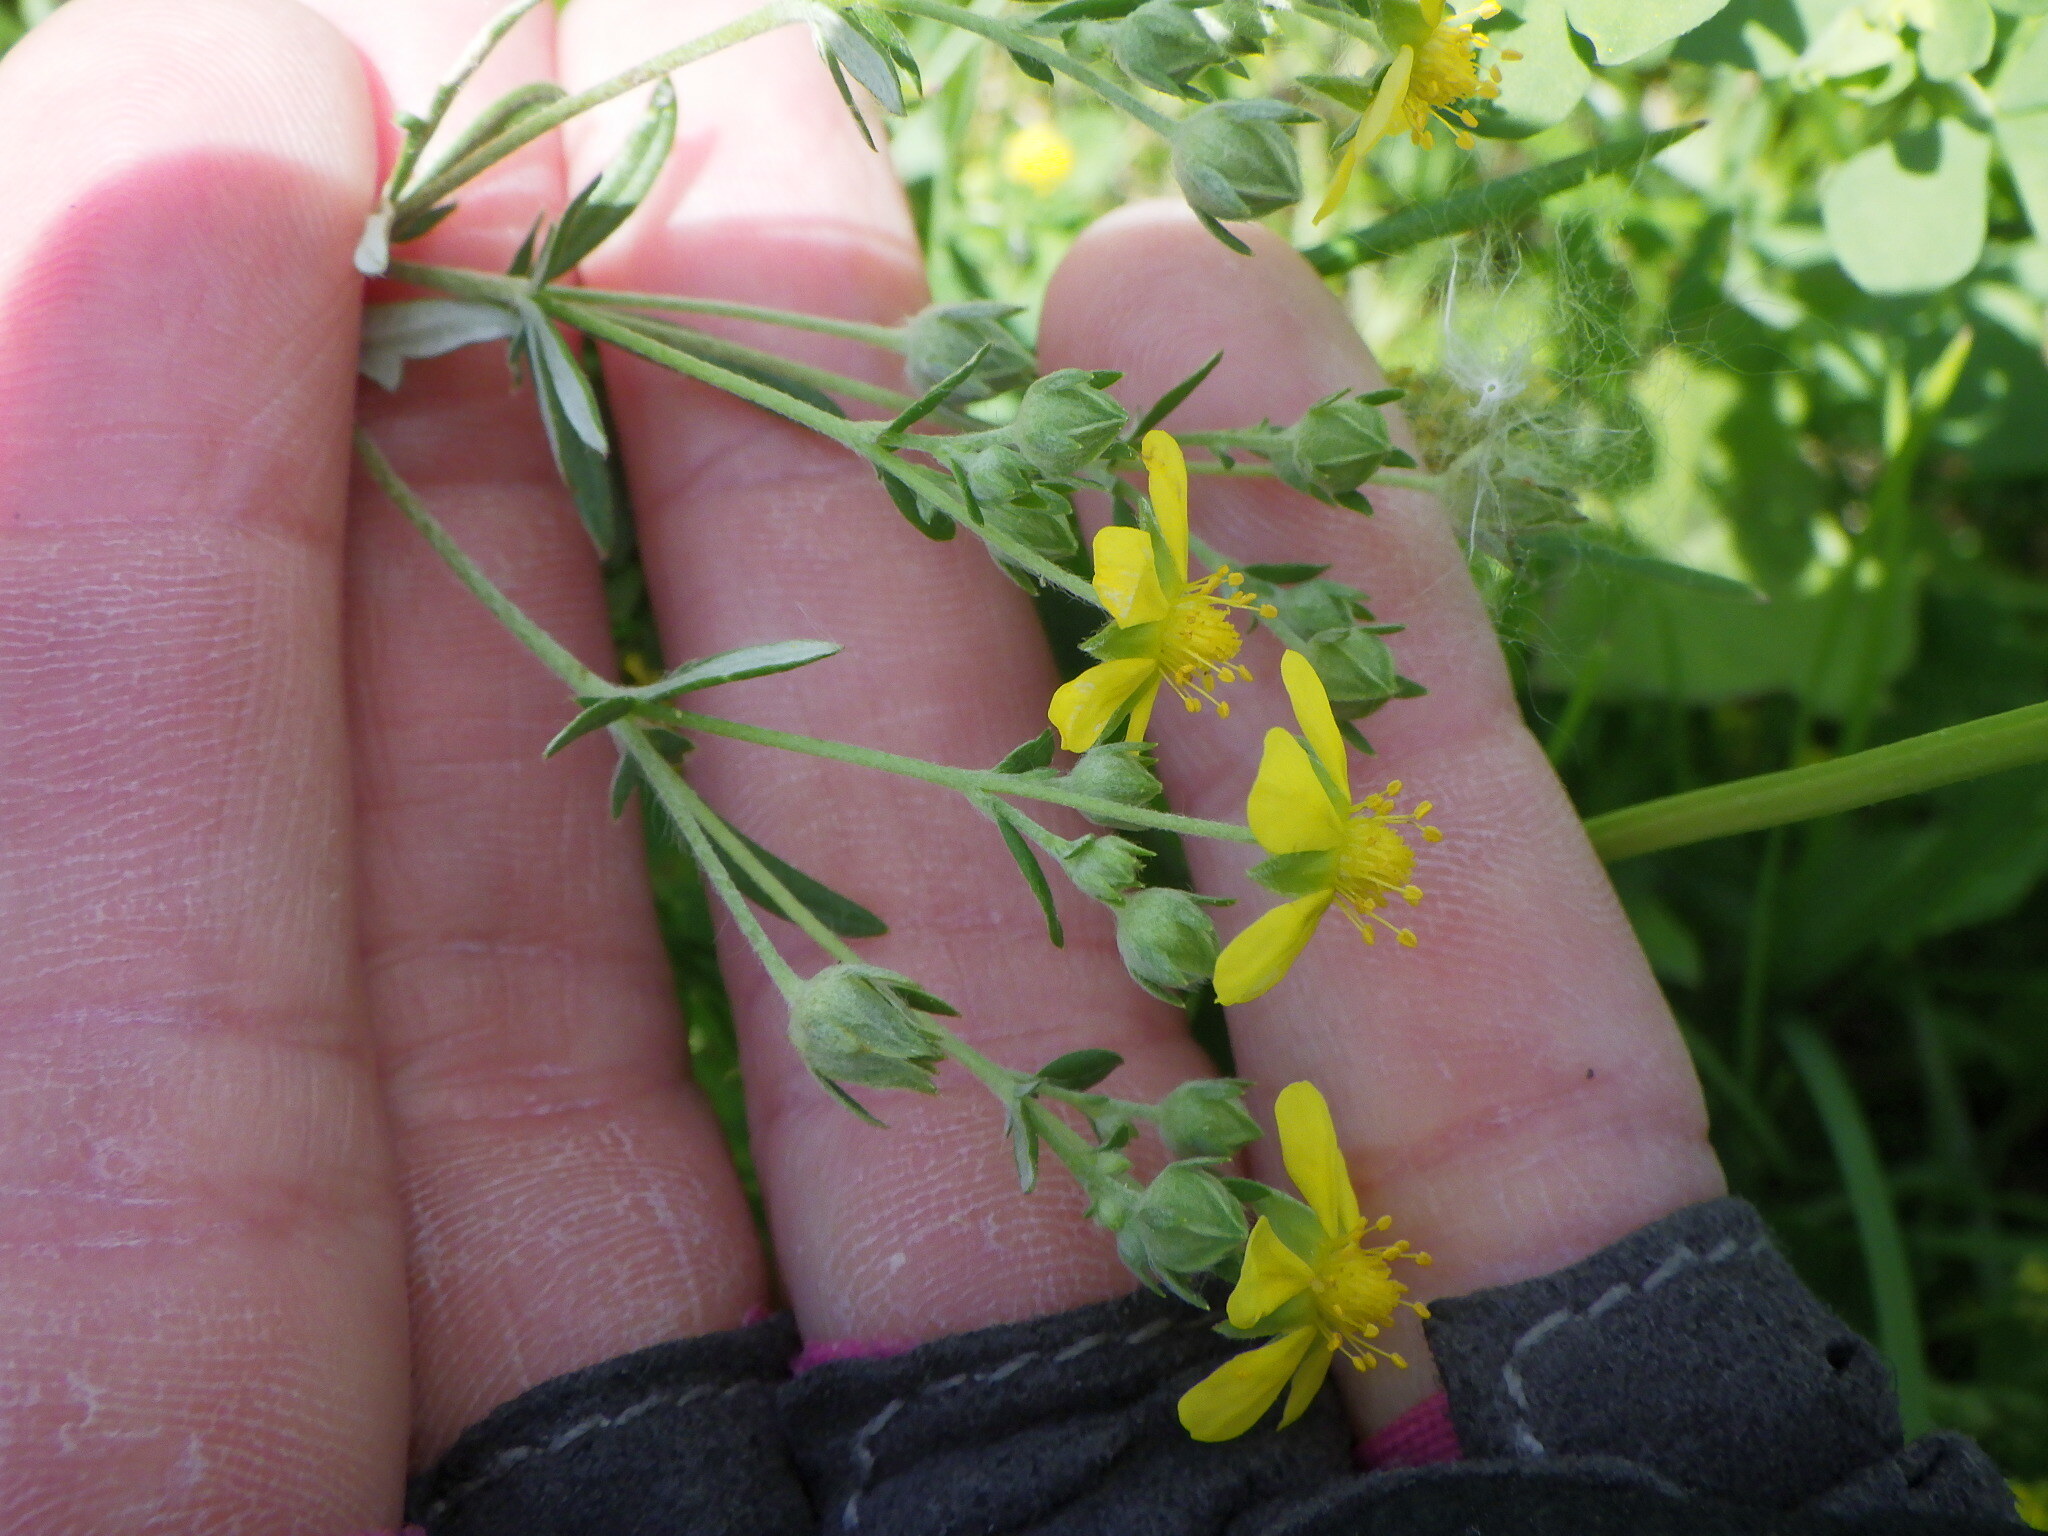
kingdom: Plantae
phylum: Tracheophyta
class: Magnoliopsida
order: Rosales
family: Rosaceae
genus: Potentilla
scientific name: Potentilla argentea
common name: Hoary cinquefoil
